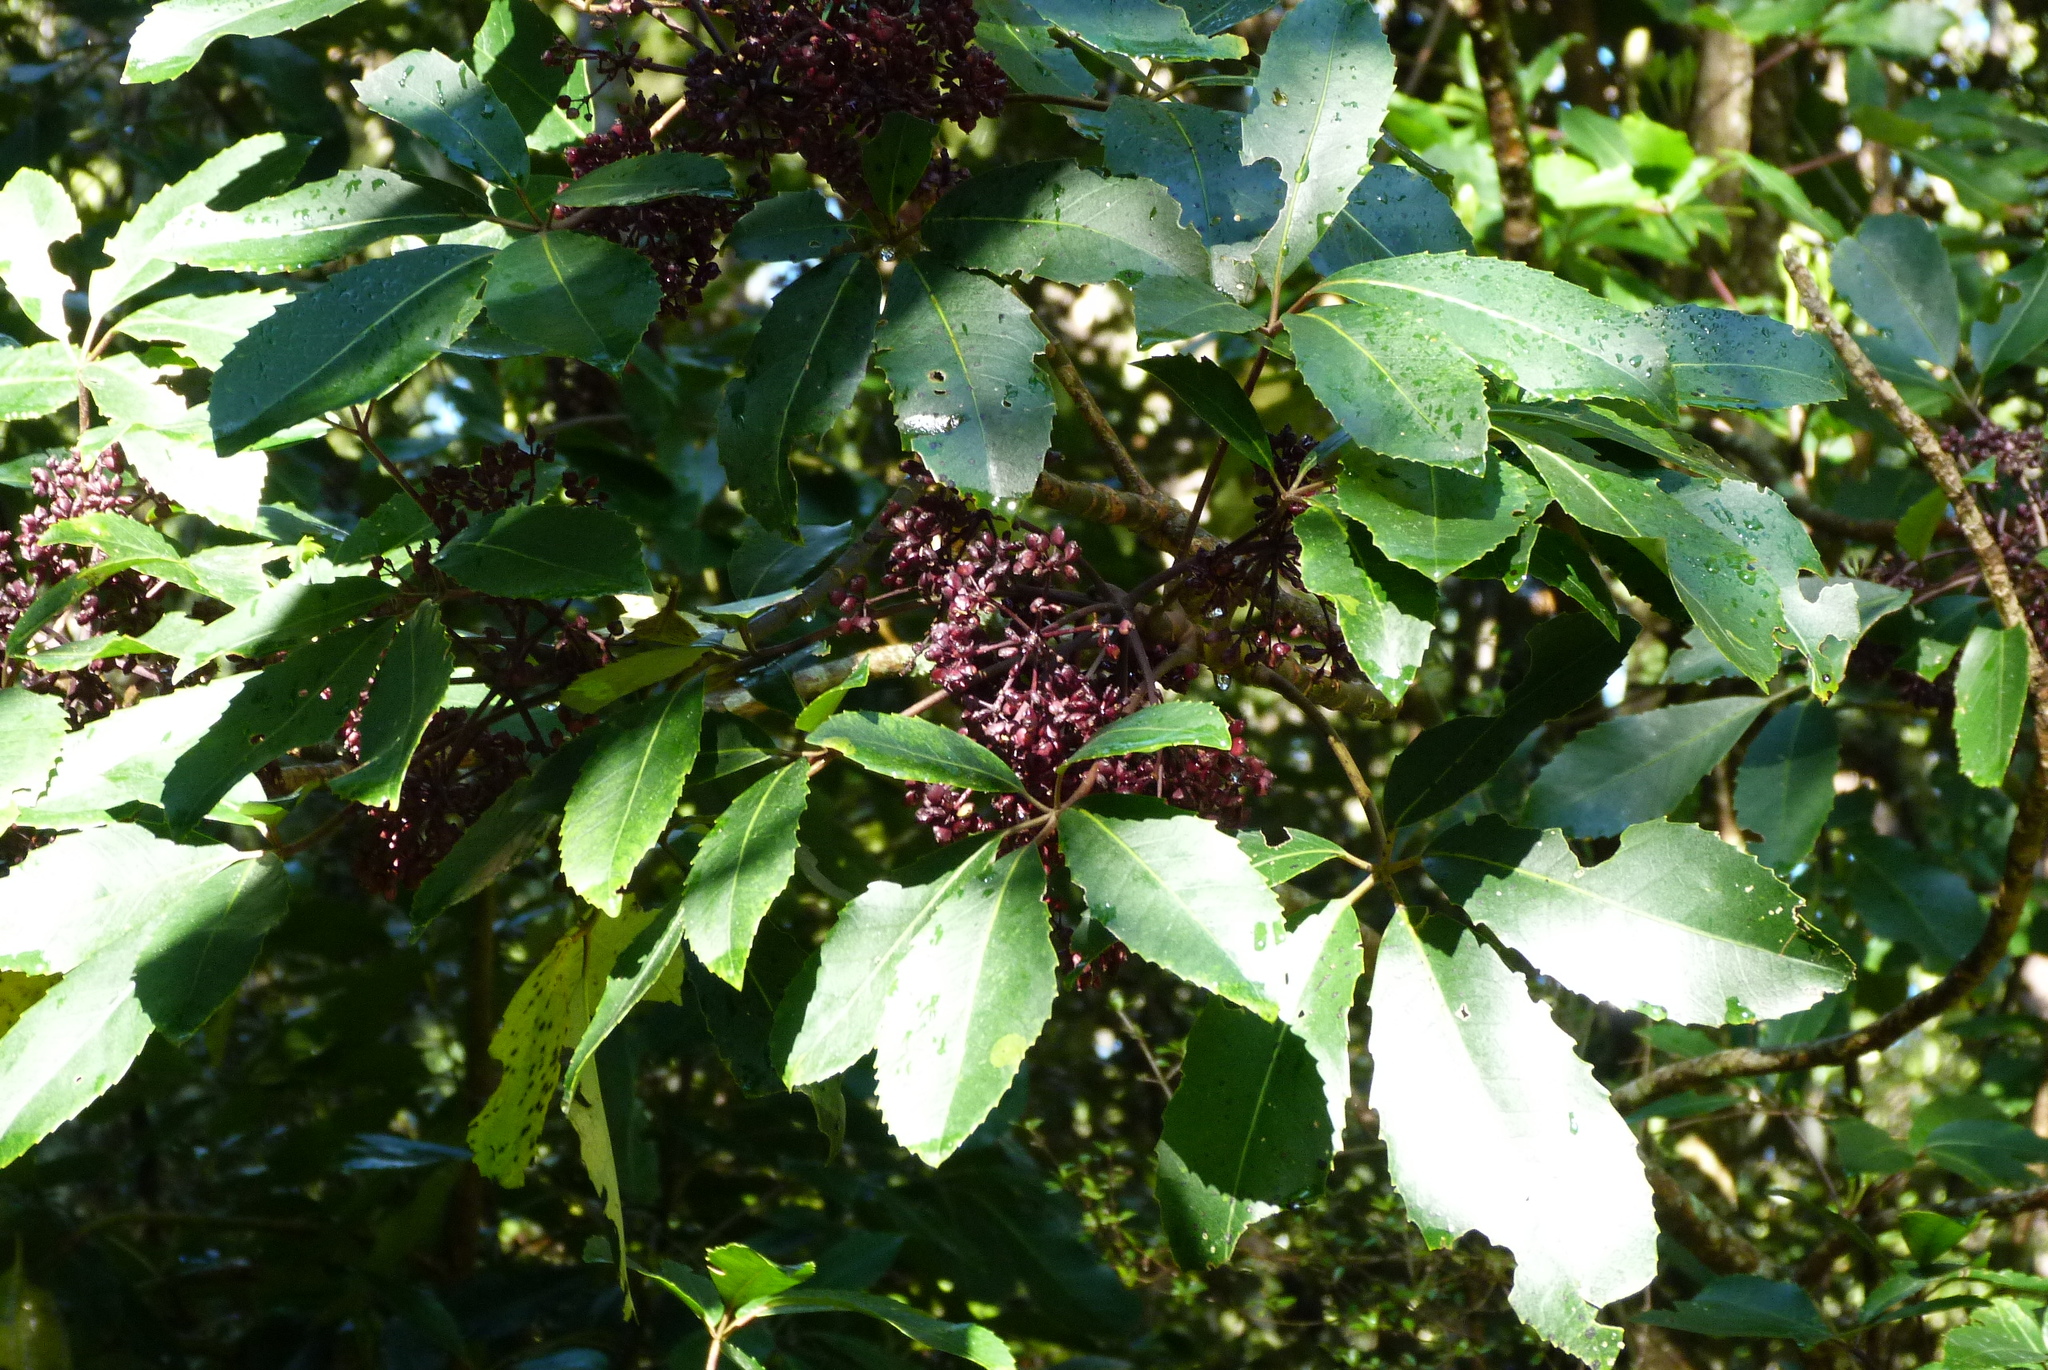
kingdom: Plantae
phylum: Tracheophyta
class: Magnoliopsida
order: Apiales
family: Araliaceae
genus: Neopanax
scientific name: Neopanax arboreus
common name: Five-fingers
